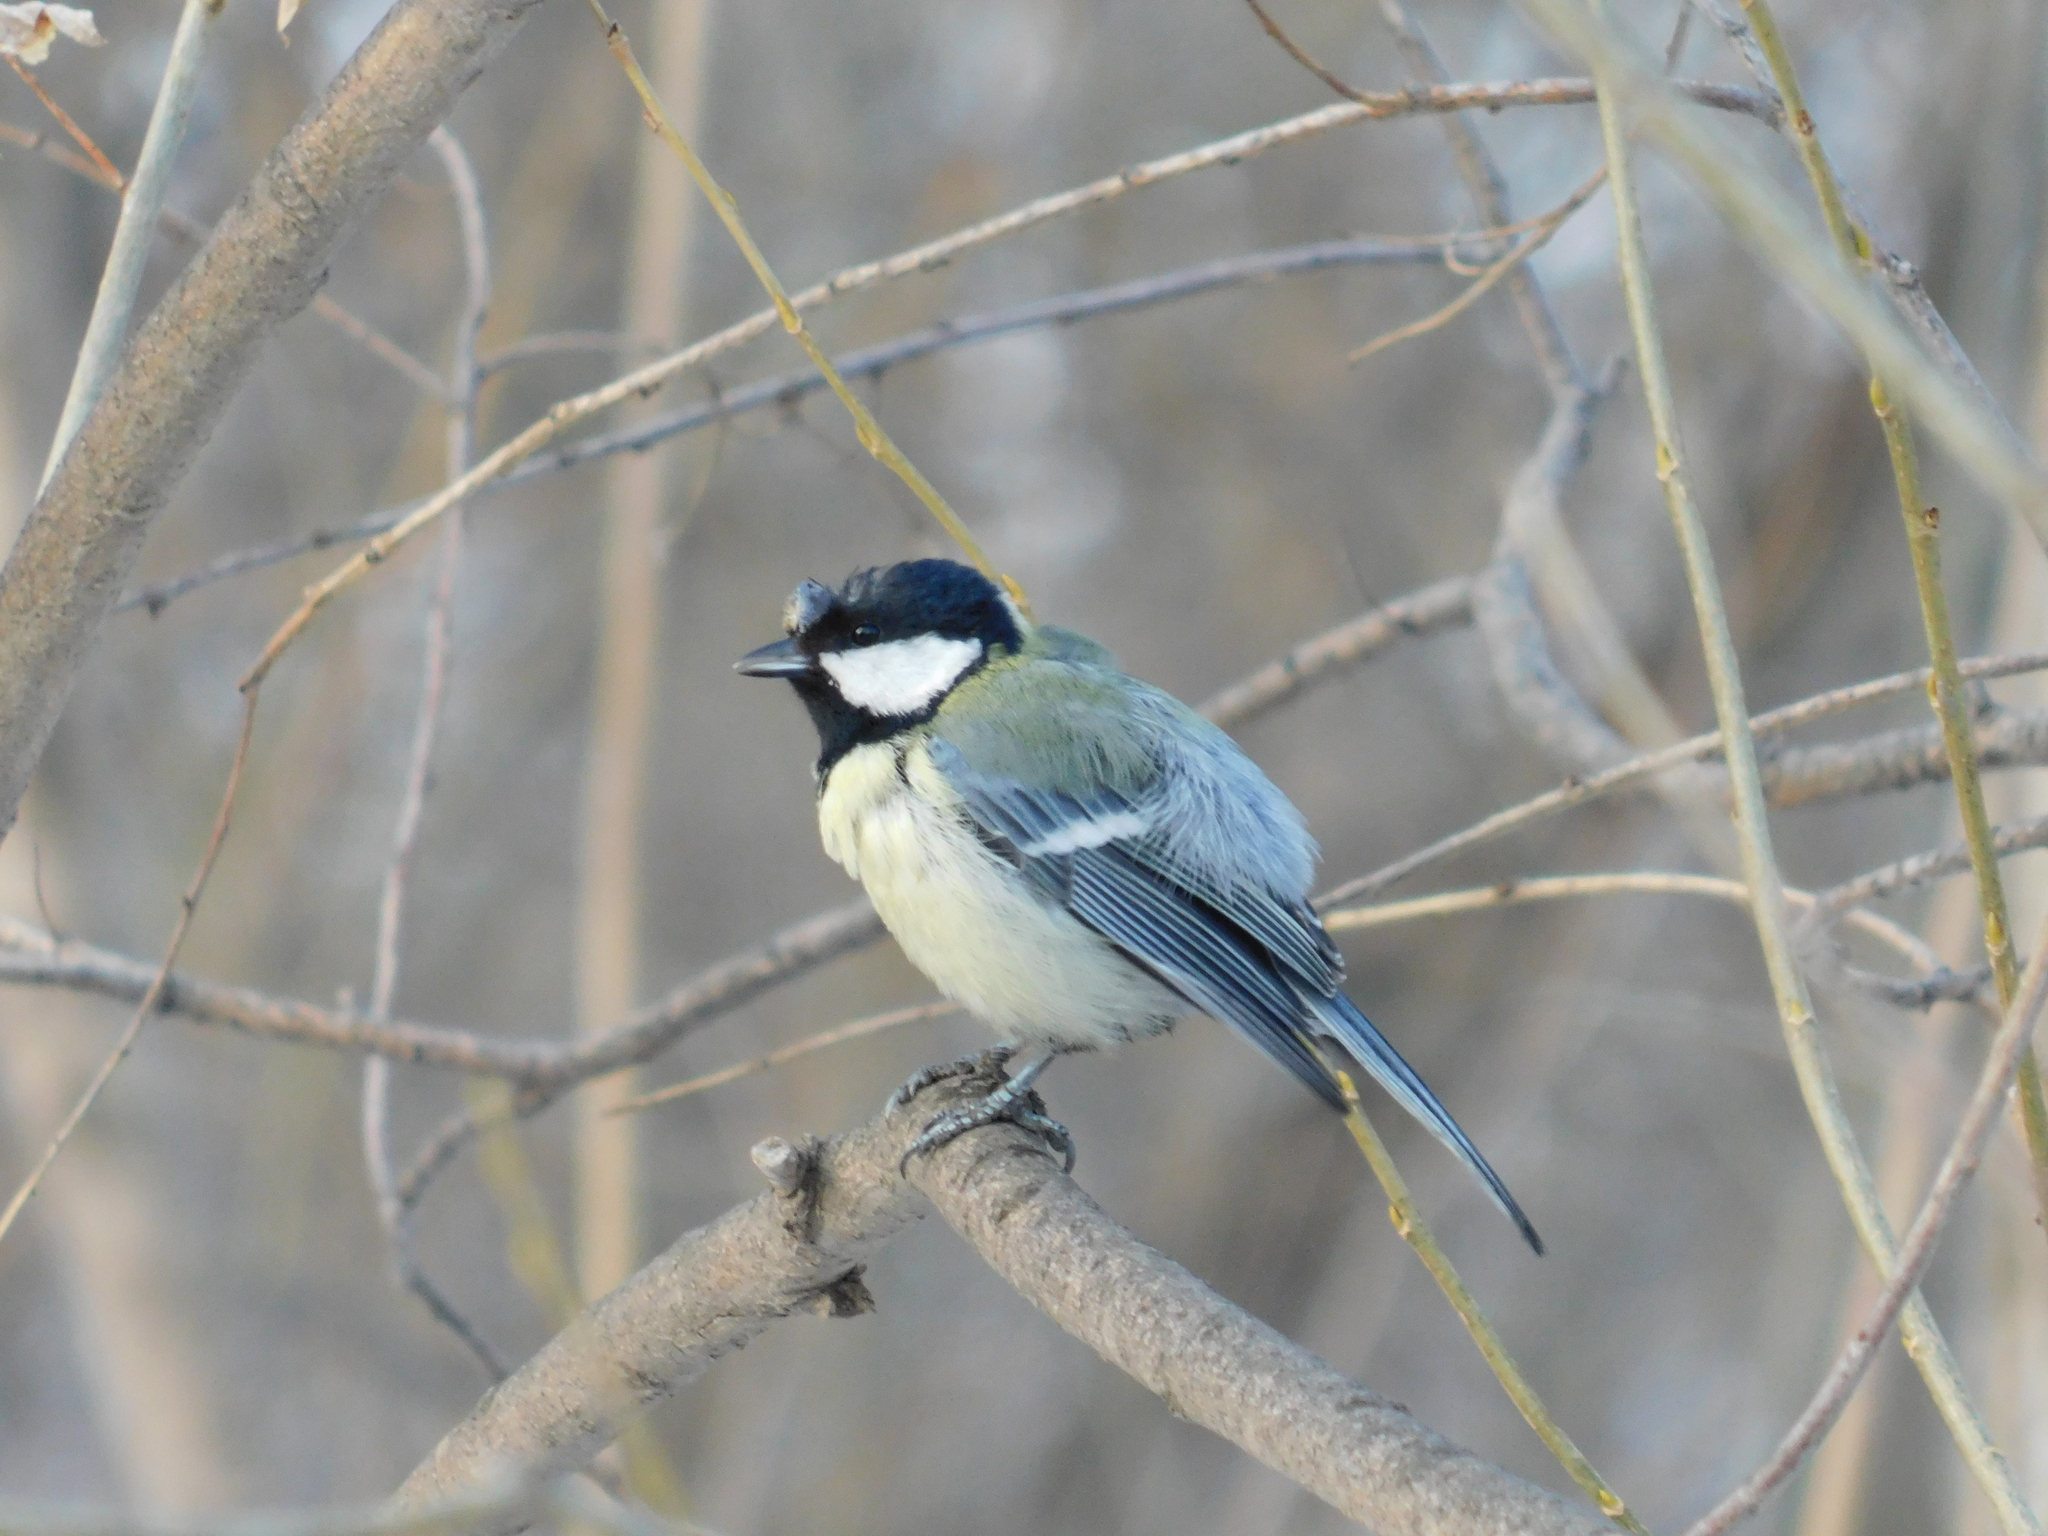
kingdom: Animalia
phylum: Chordata
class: Aves
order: Passeriformes
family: Paridae
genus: Parus
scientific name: Parus major
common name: Great tit
